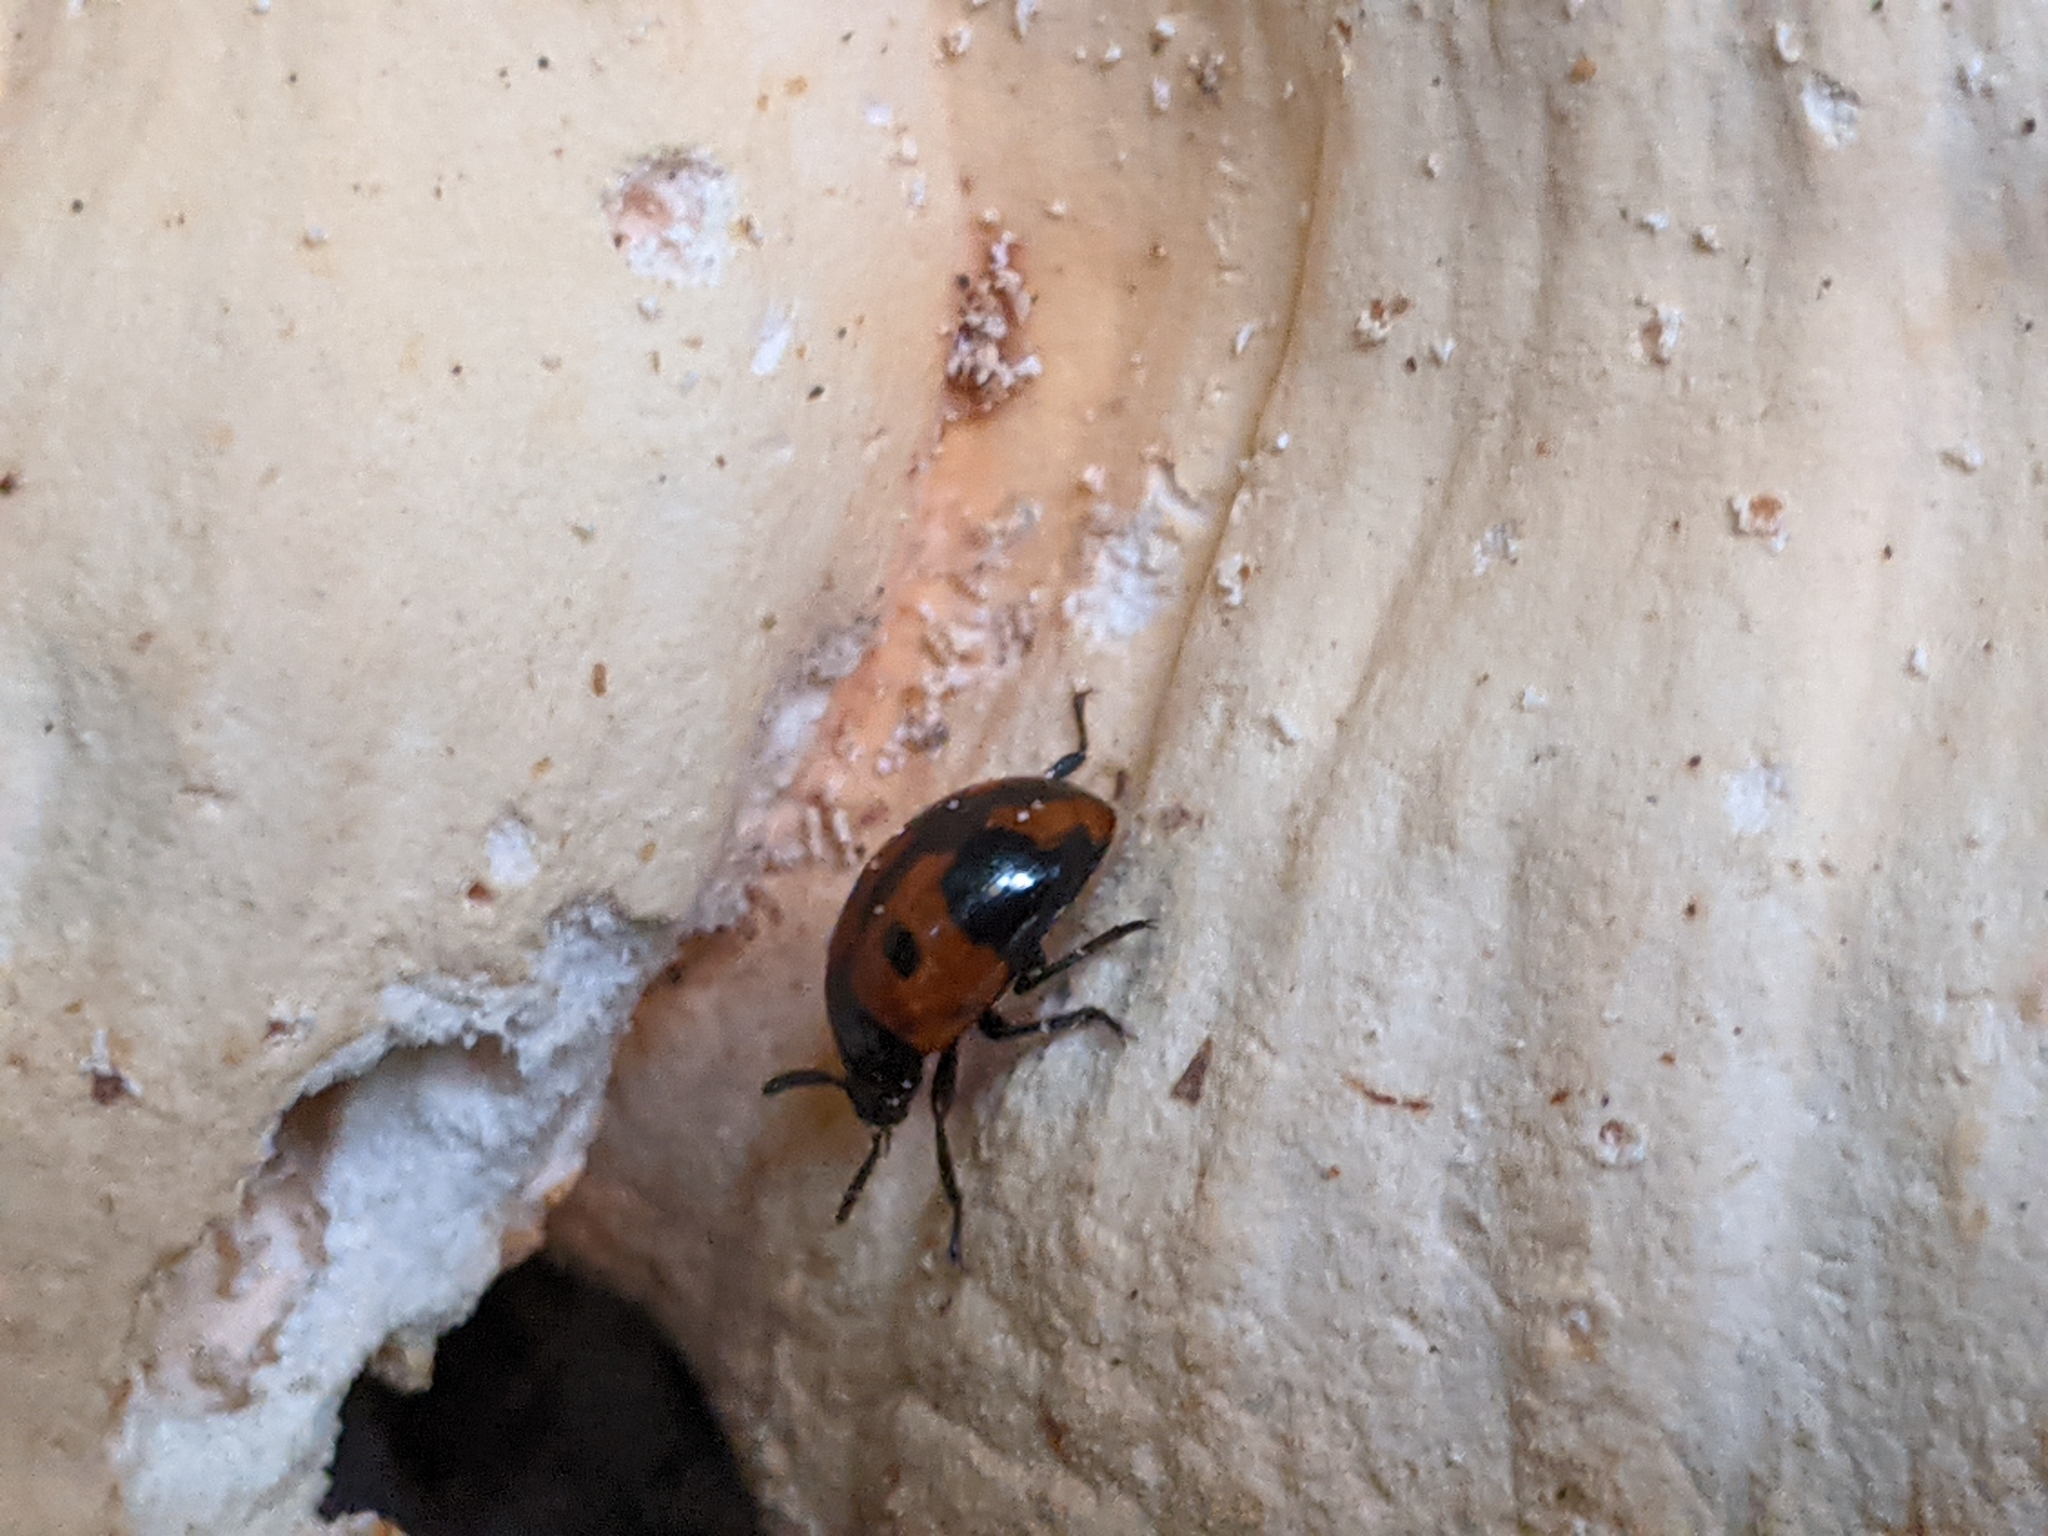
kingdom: Animalia
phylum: Arthropoda
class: Insecta
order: Coleoptera
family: Tenebrionidae
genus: Diaperis
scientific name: Diaperis maculata
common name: Darkling beetle
